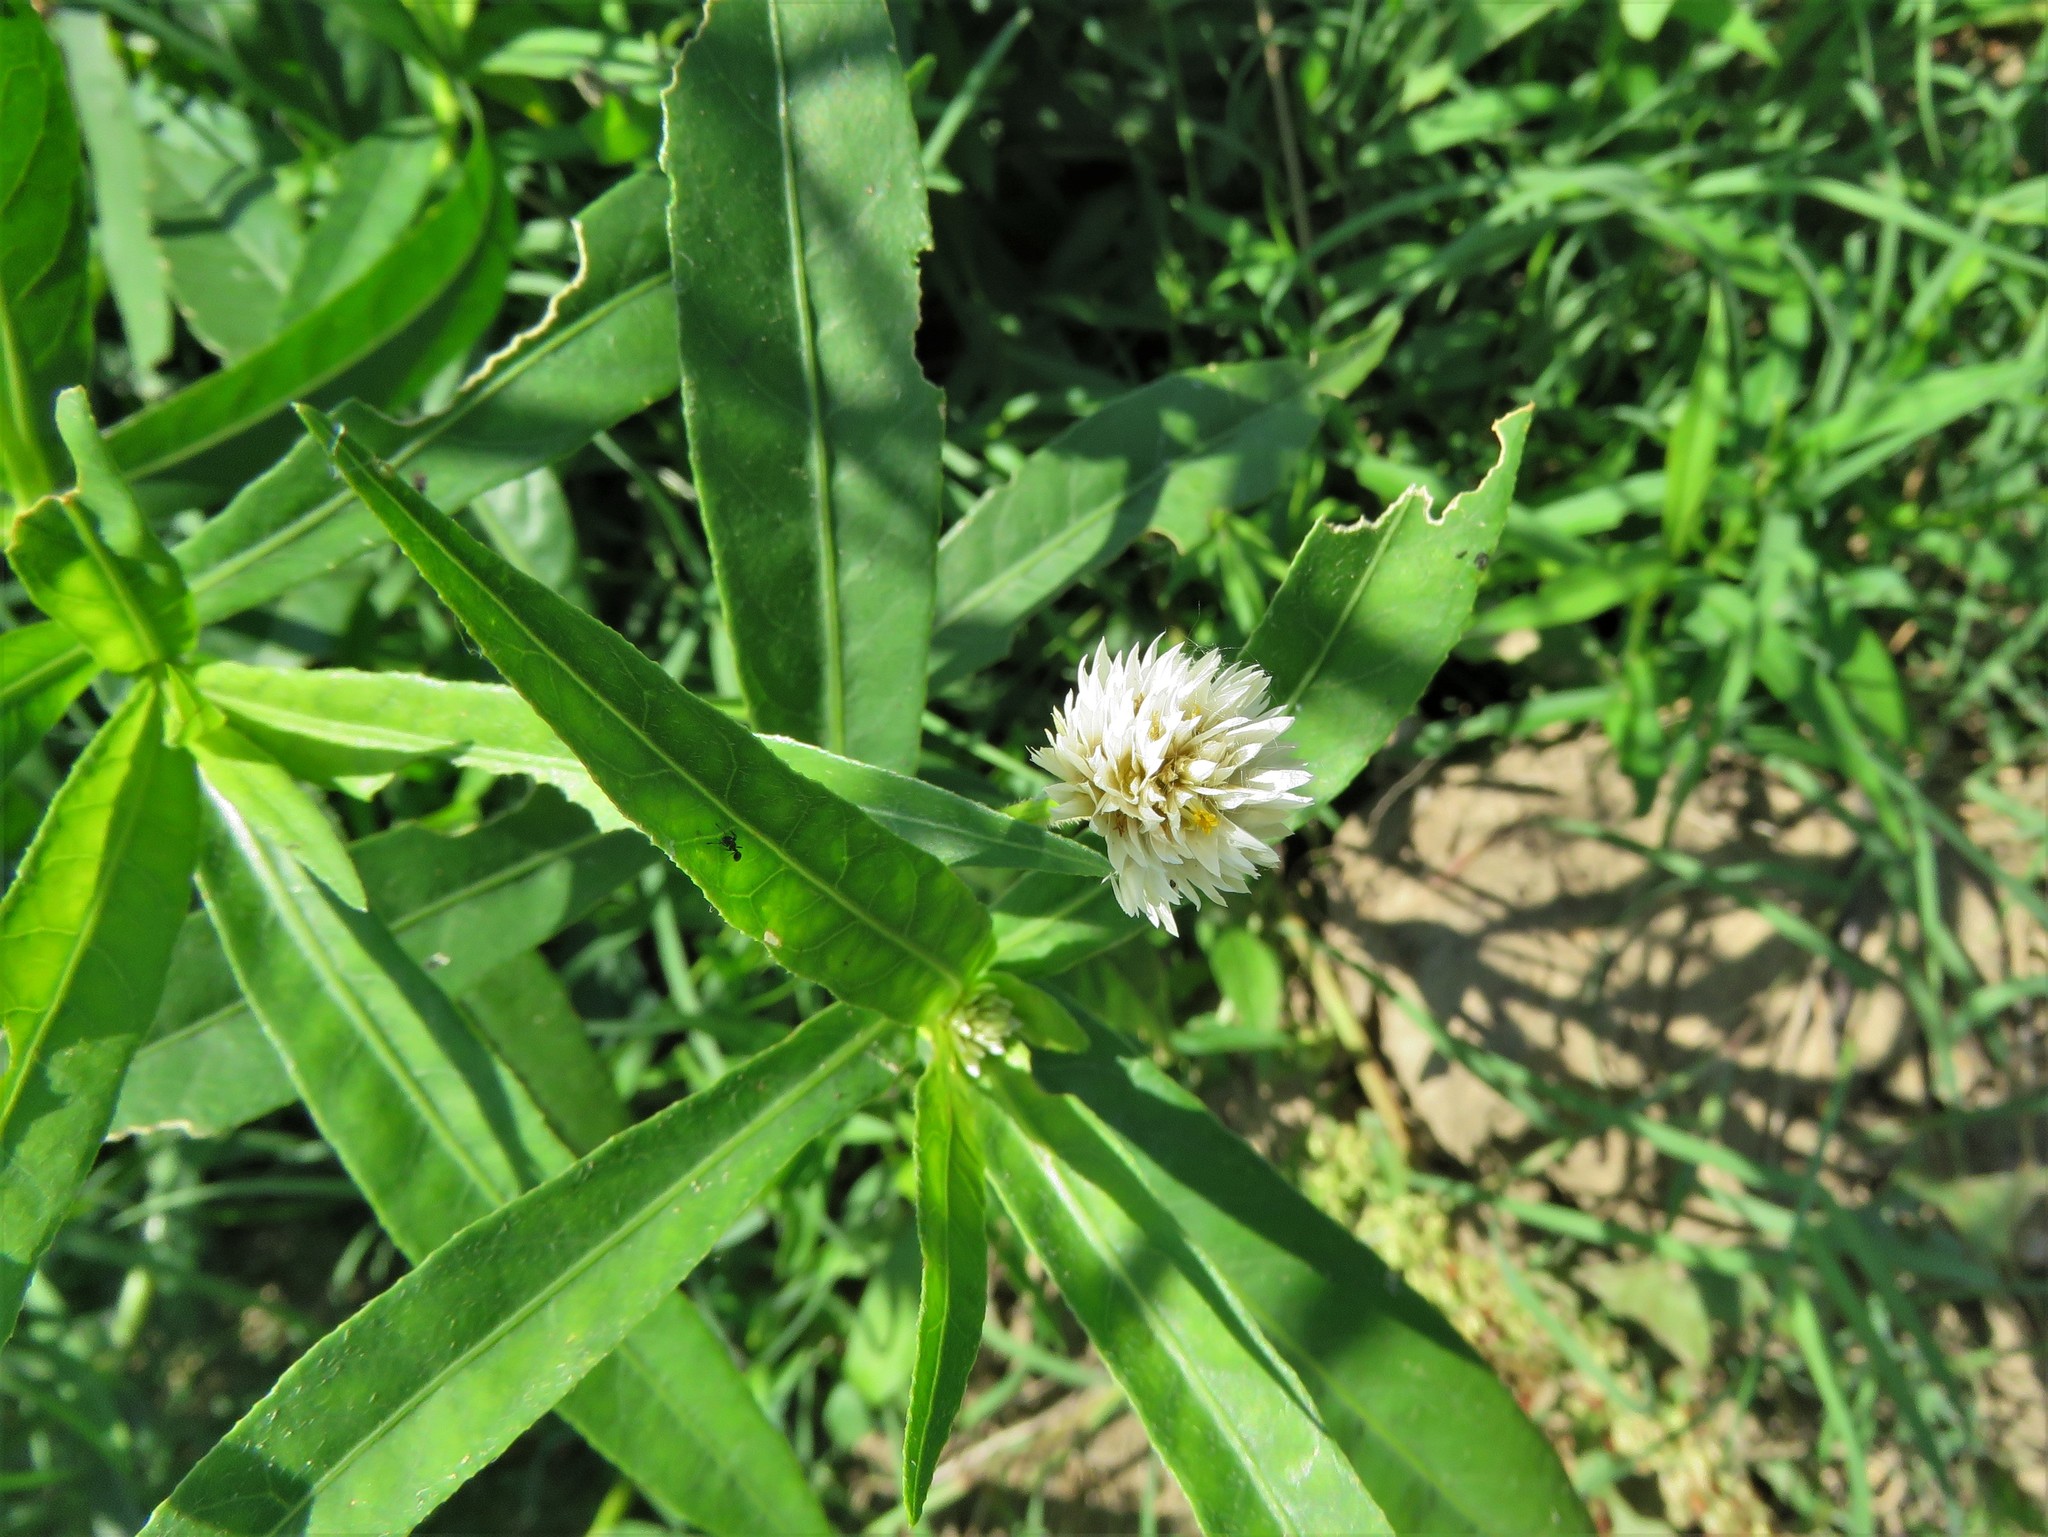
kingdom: Plantae
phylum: Tracheophyta
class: Magnoliopsida
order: Caryophyllales
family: Amaranthaceae
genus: Alternanthera
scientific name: Alternanthera philoxeroides
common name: Alligatorweed
